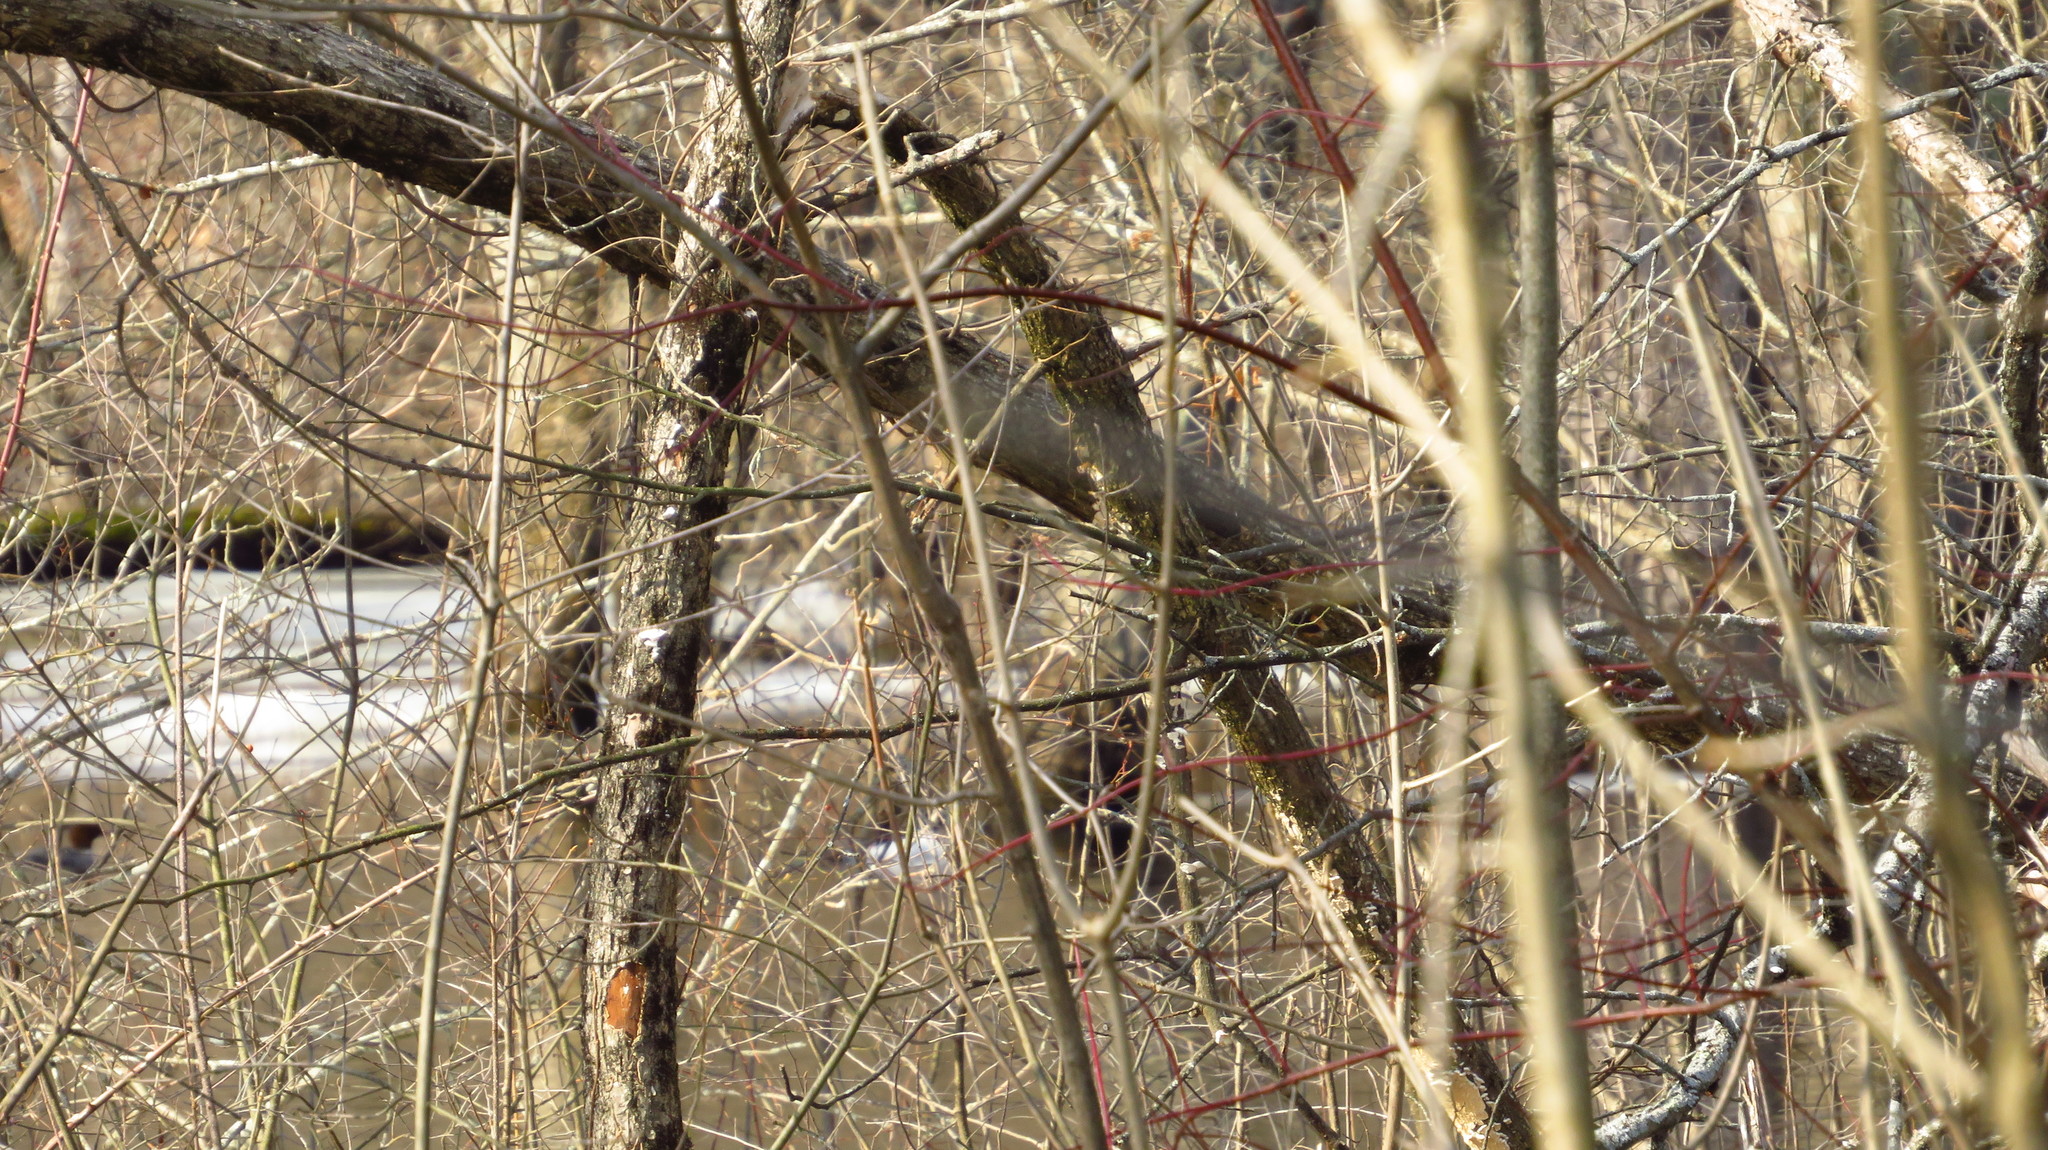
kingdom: Animalia
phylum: Chordata
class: Aves
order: Anseriformes
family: Anatidae
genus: Mergus
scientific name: Mergus merganser
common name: Common merganser
